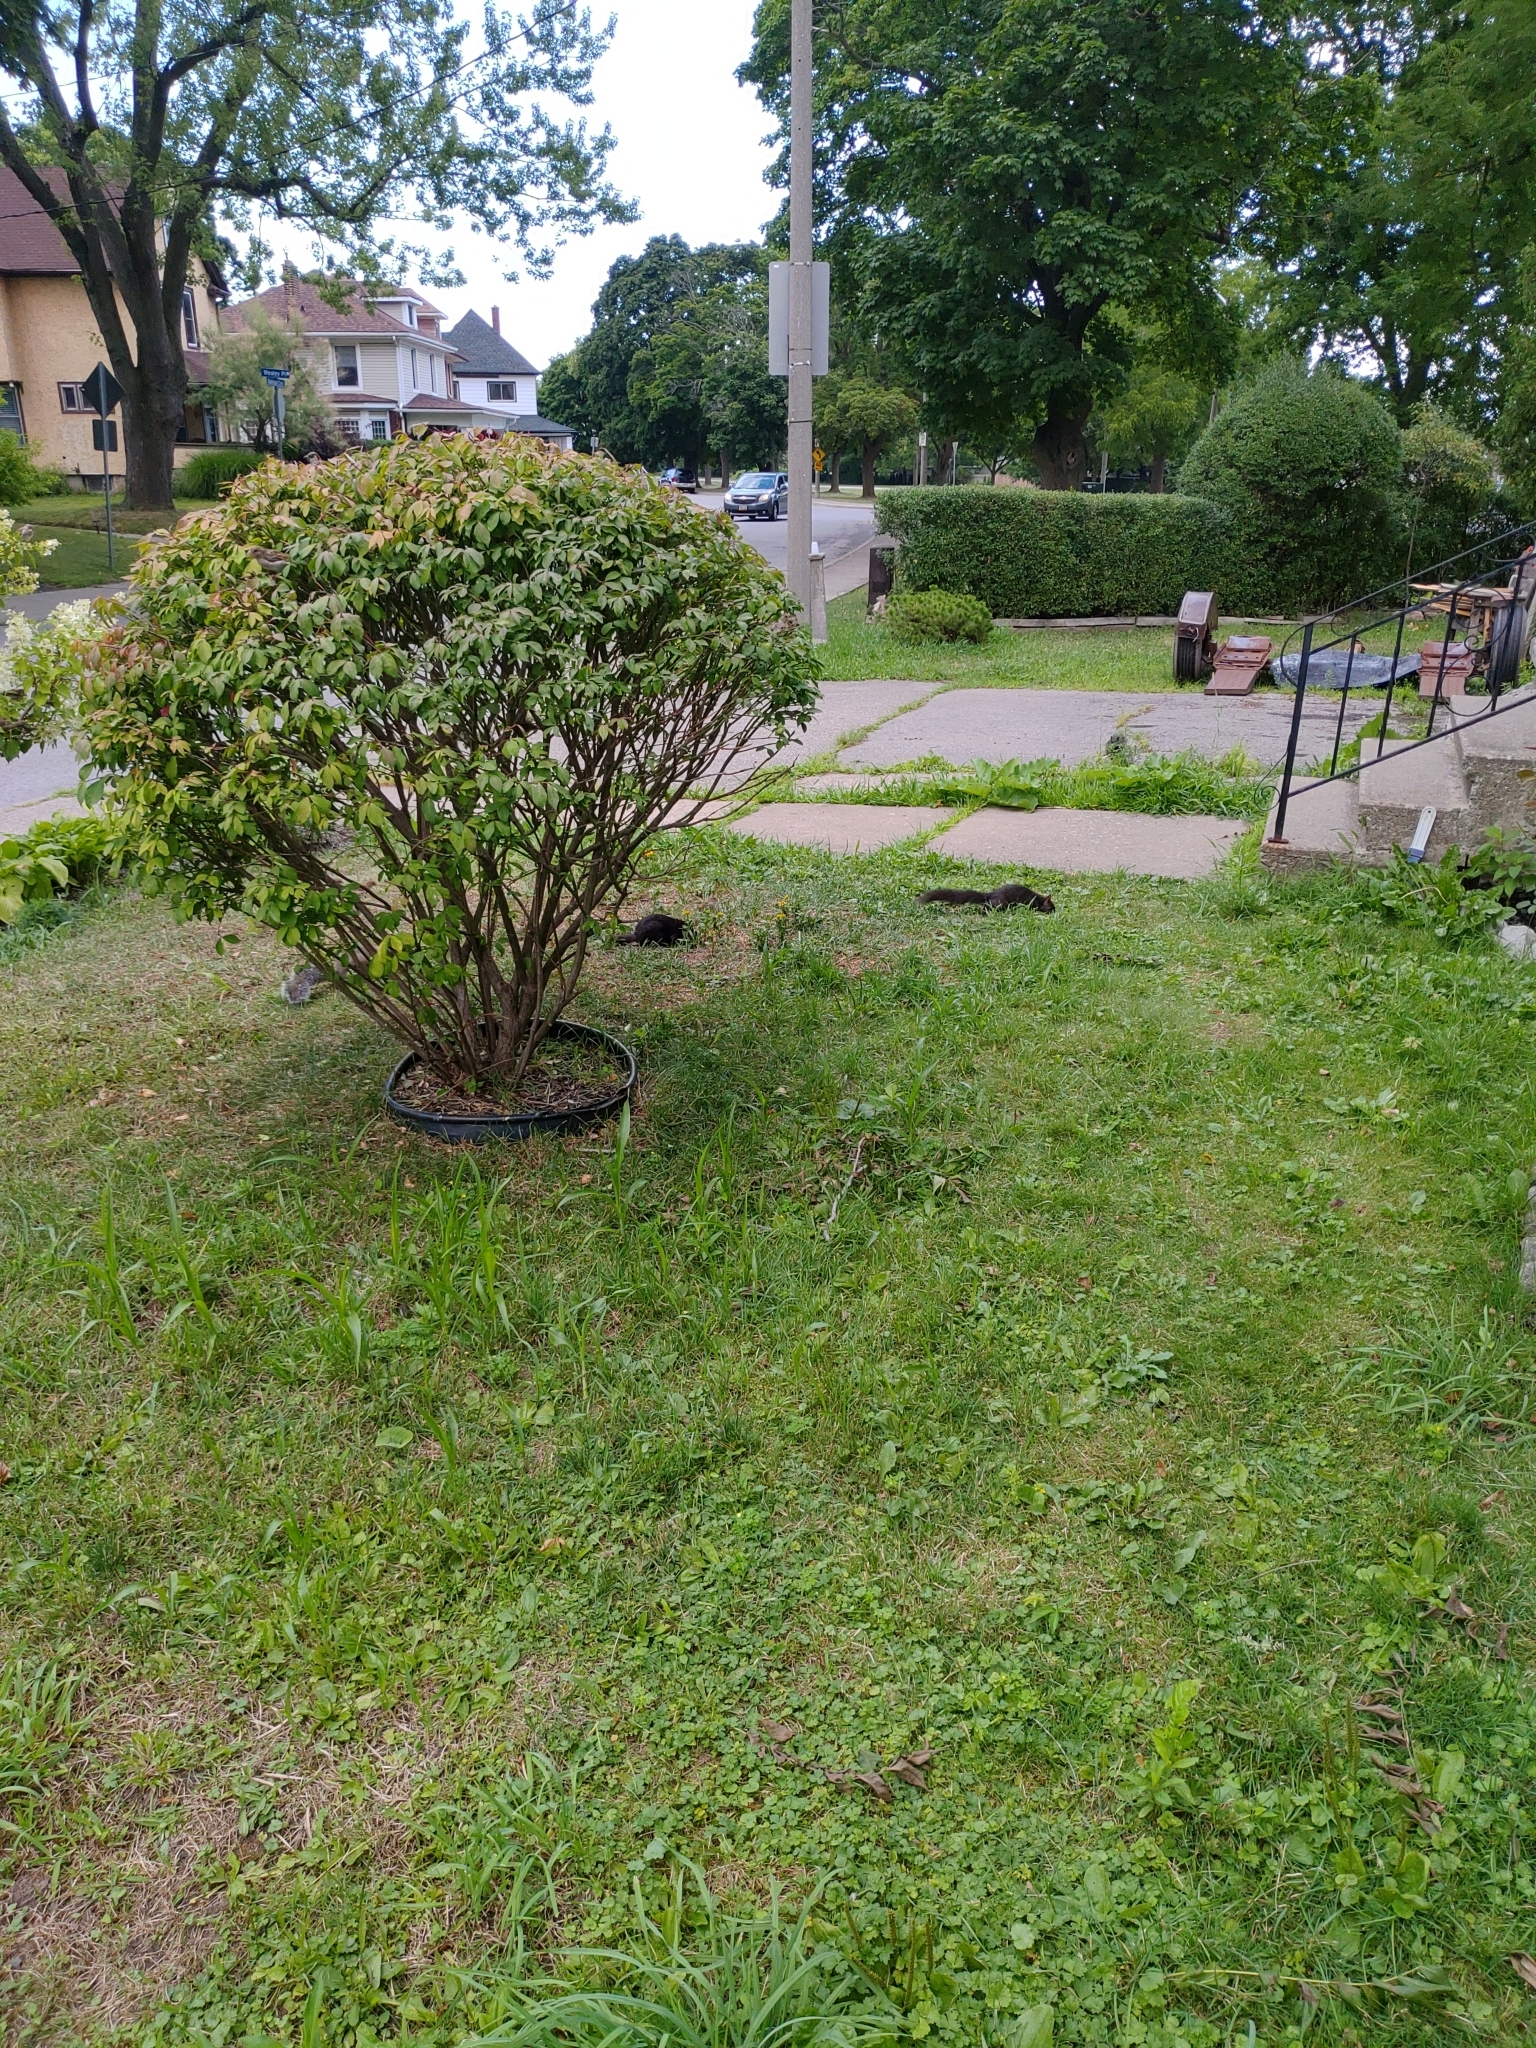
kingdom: Animalia
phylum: Chordata
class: Mammalia
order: Rodentia
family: Sciuridae
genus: Sciurus
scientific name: Sciurus carolinensis
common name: Eastern gray squirrel
